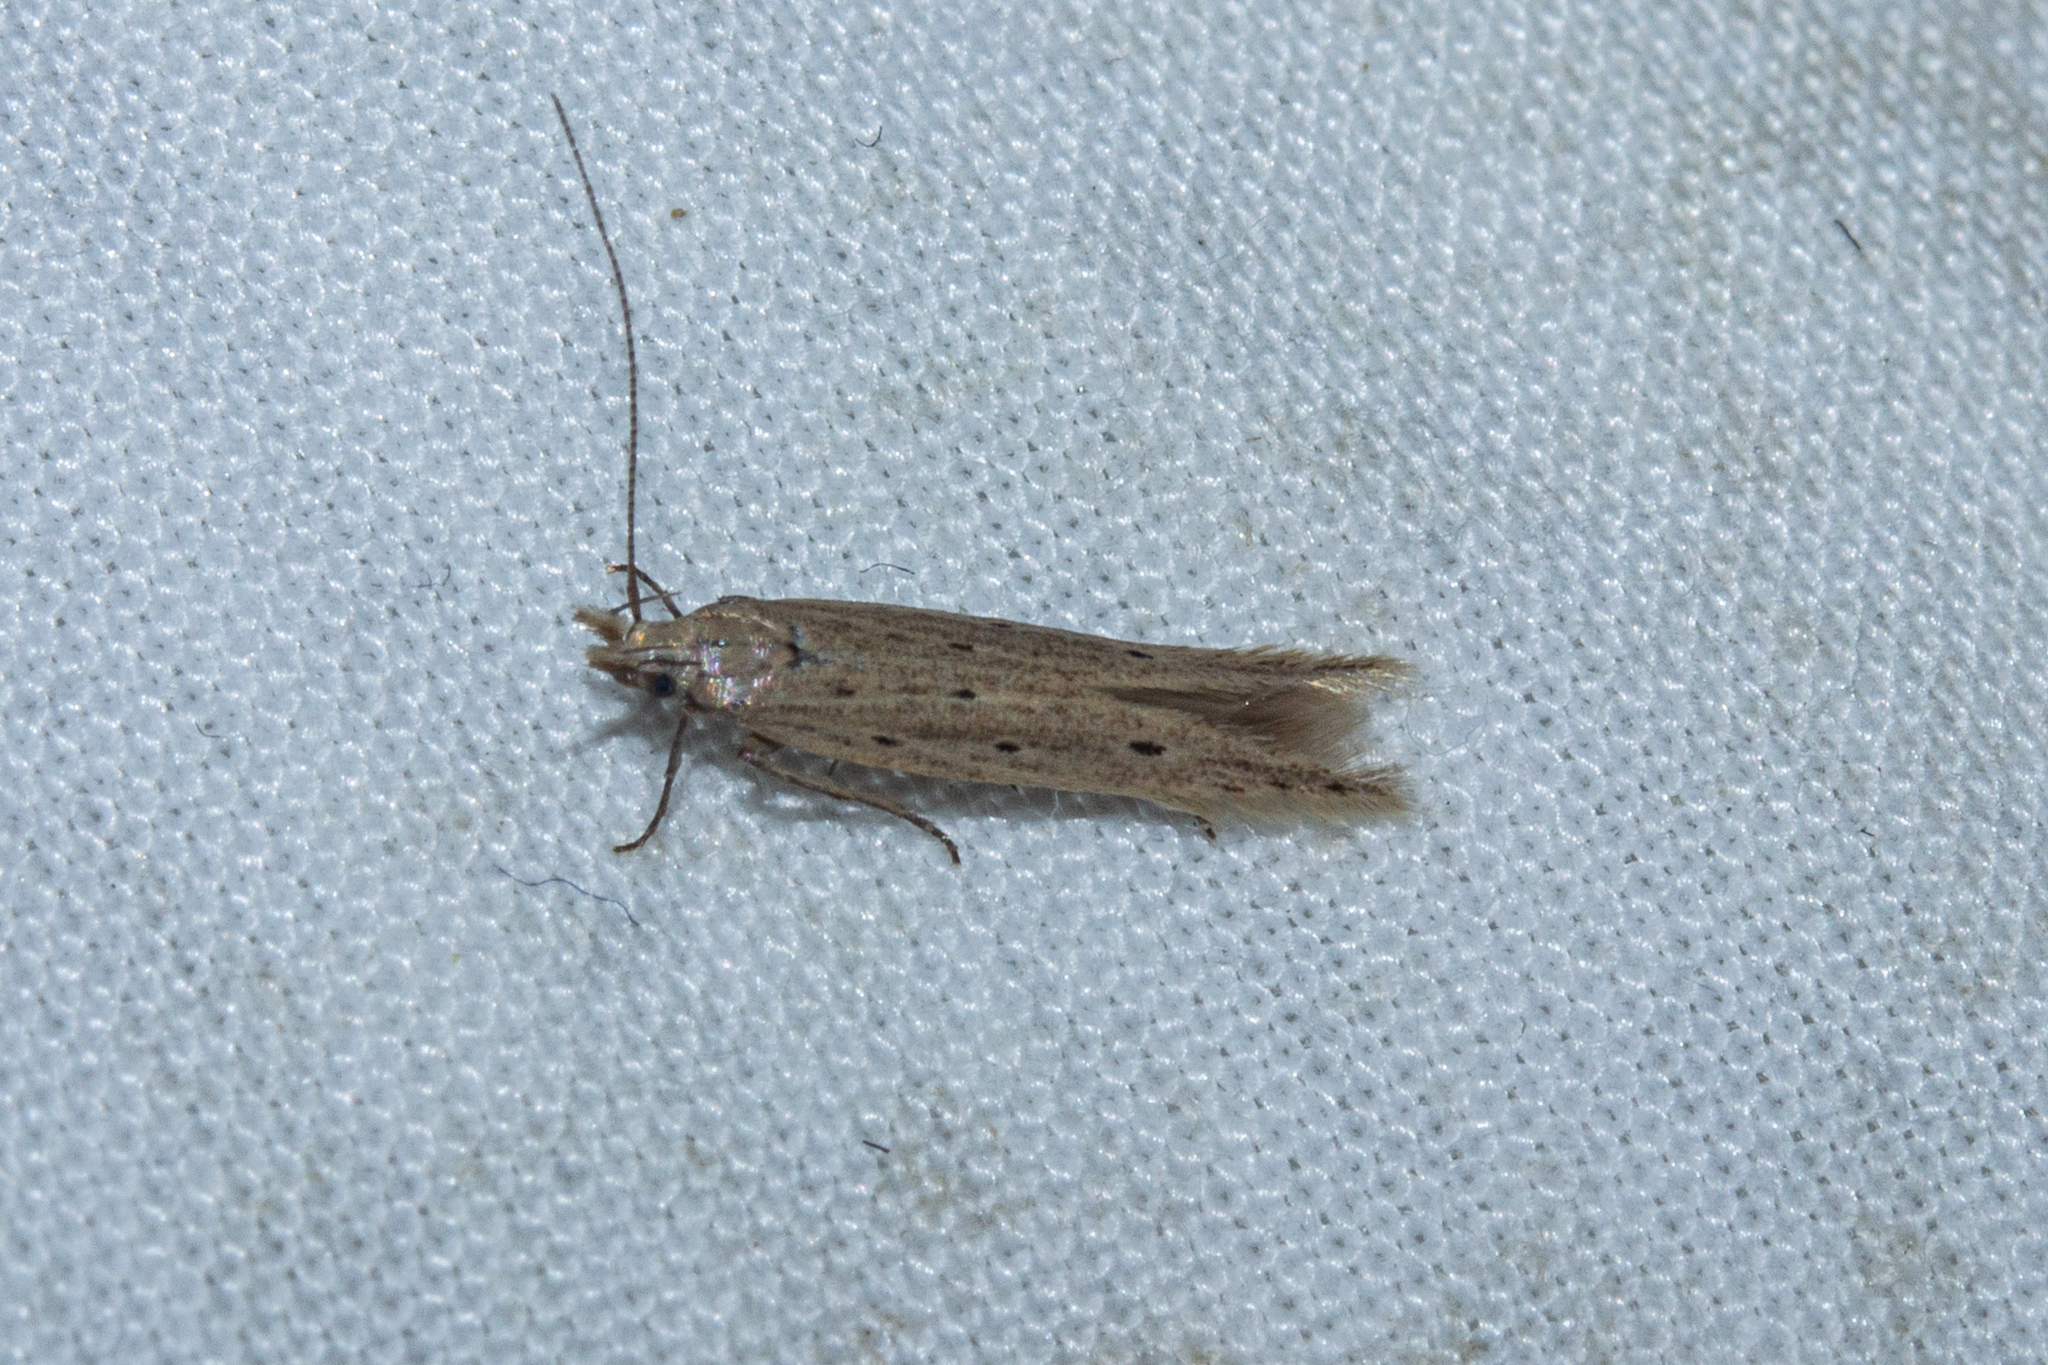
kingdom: Animalia
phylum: Arthropoda
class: Insecta
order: Lepidoptera
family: Gelechiidae
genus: Epiphthora
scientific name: Epiphthora calamogonus
